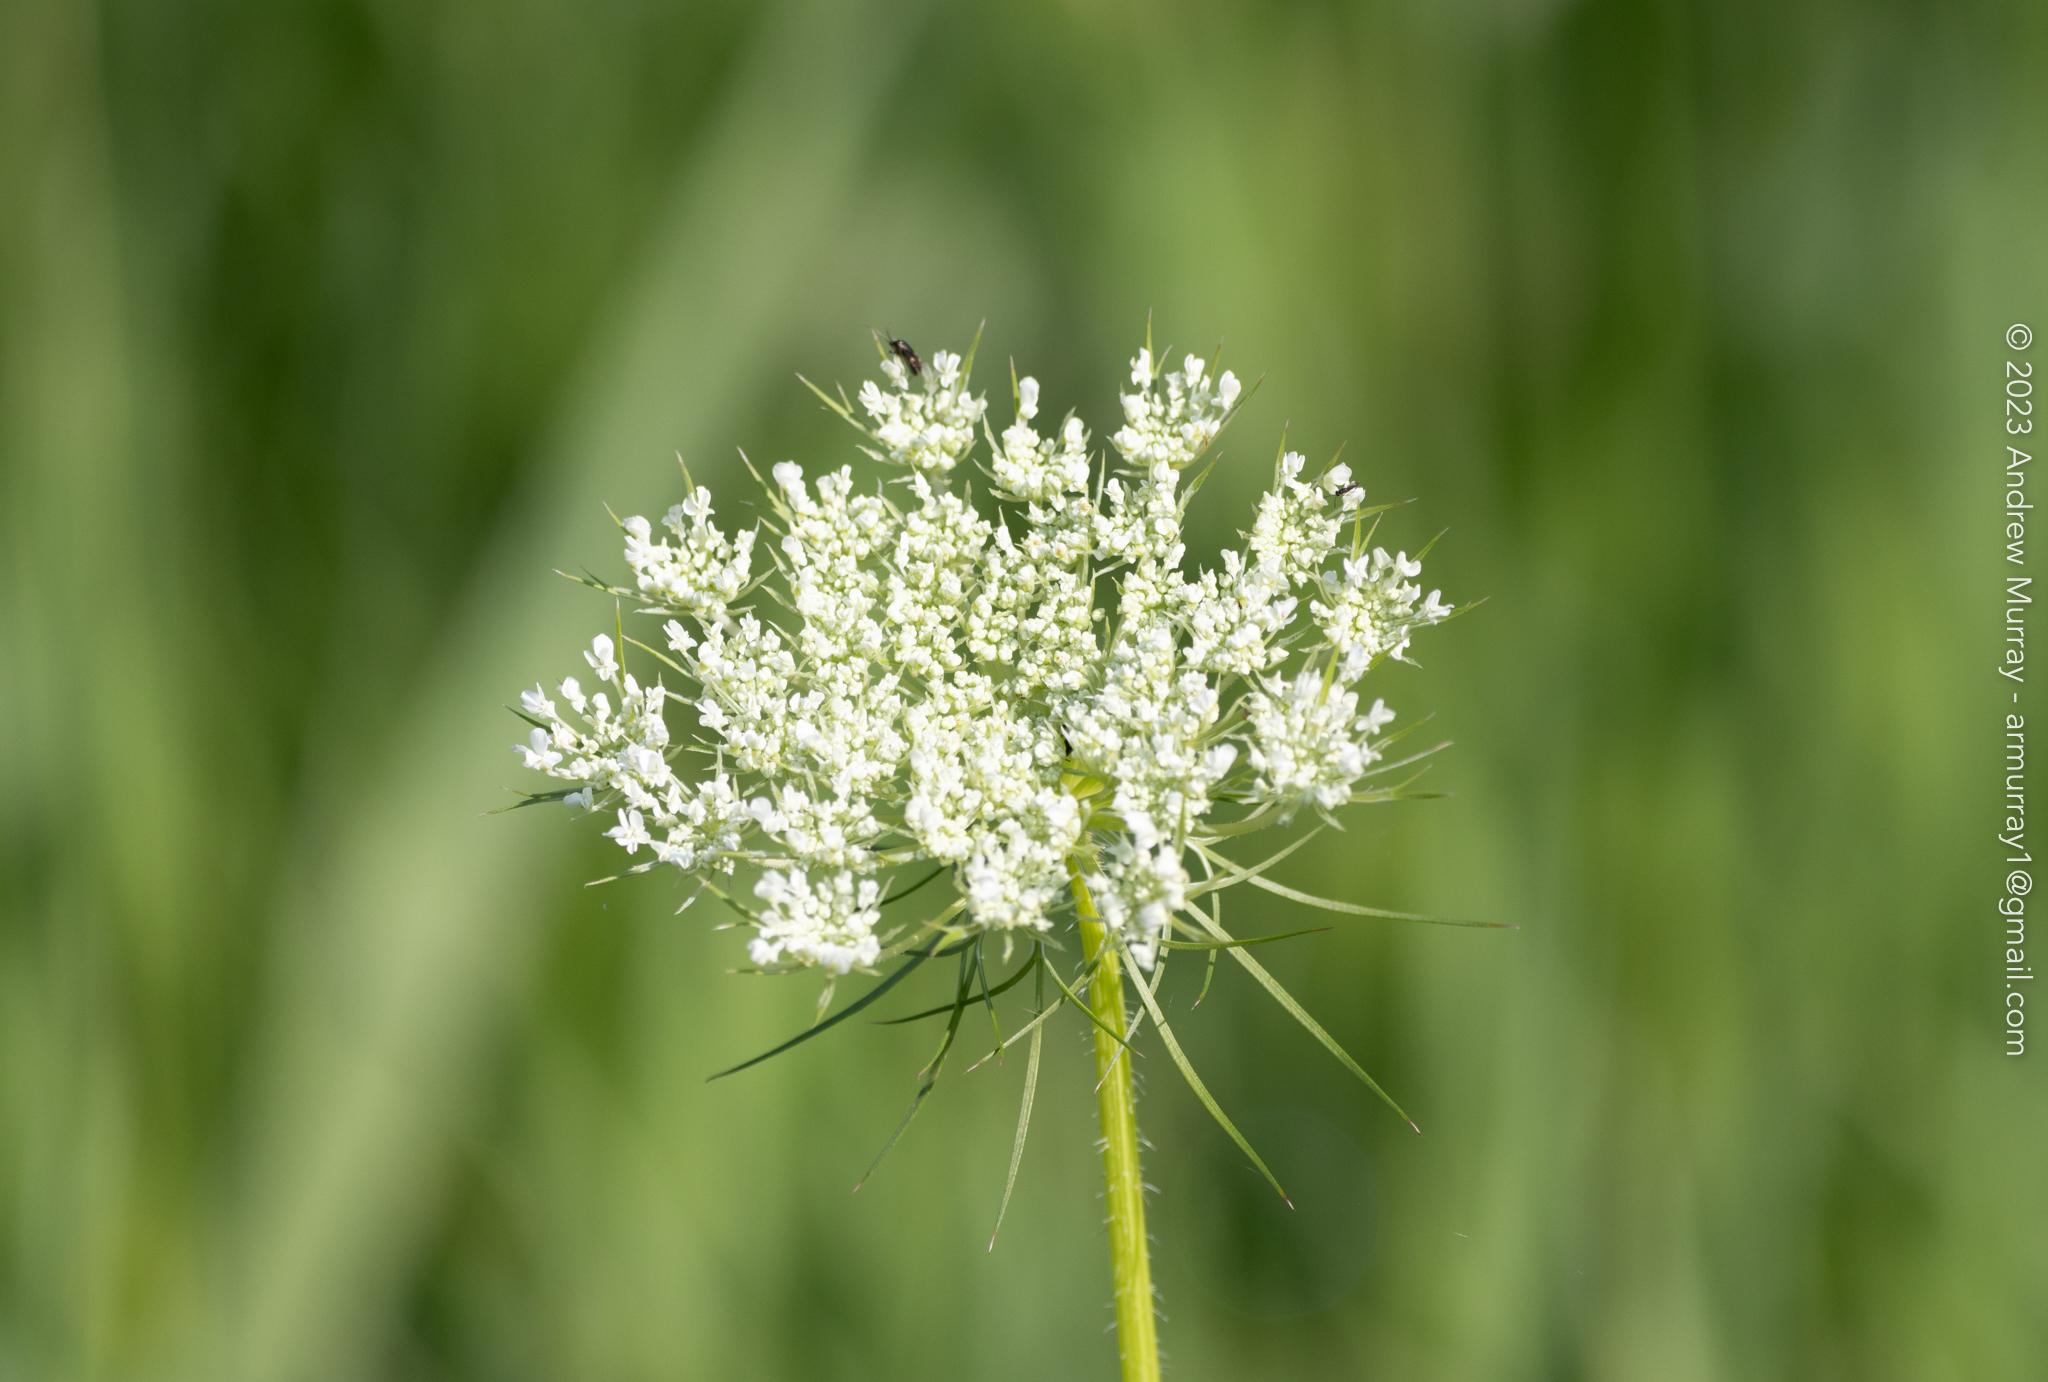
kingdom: Plantae
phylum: Tracheophyta
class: Magnoliopsida
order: Apiales
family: Apiaceae
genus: Daucus
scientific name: Daucus carota
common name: Wild carrot
